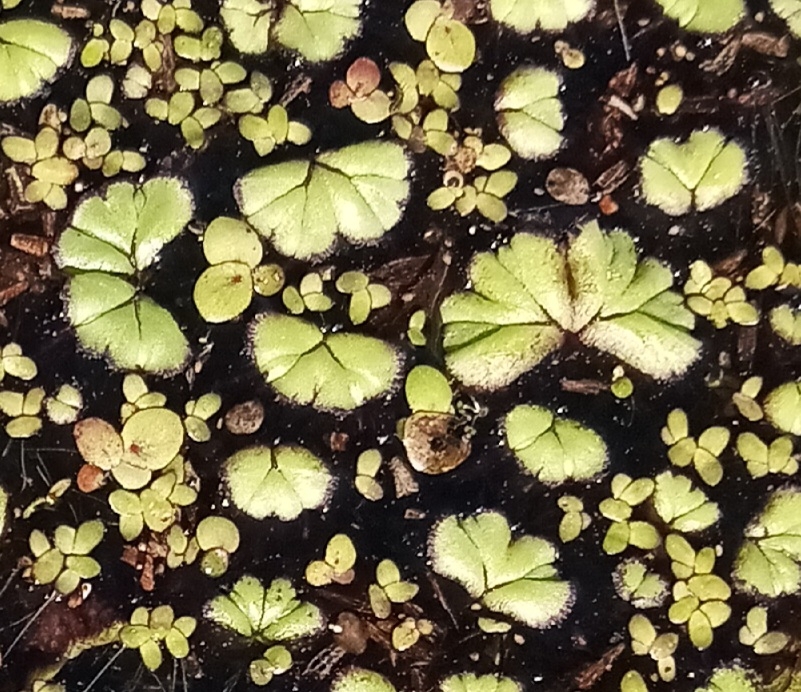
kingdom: Plantae
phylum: Marchantiophyta
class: Marchantiopsida
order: Marchantiales
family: Ricciaceae
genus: Ricciocarpos
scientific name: Ricciocarpos natans
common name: Purple-fringed liverwort
